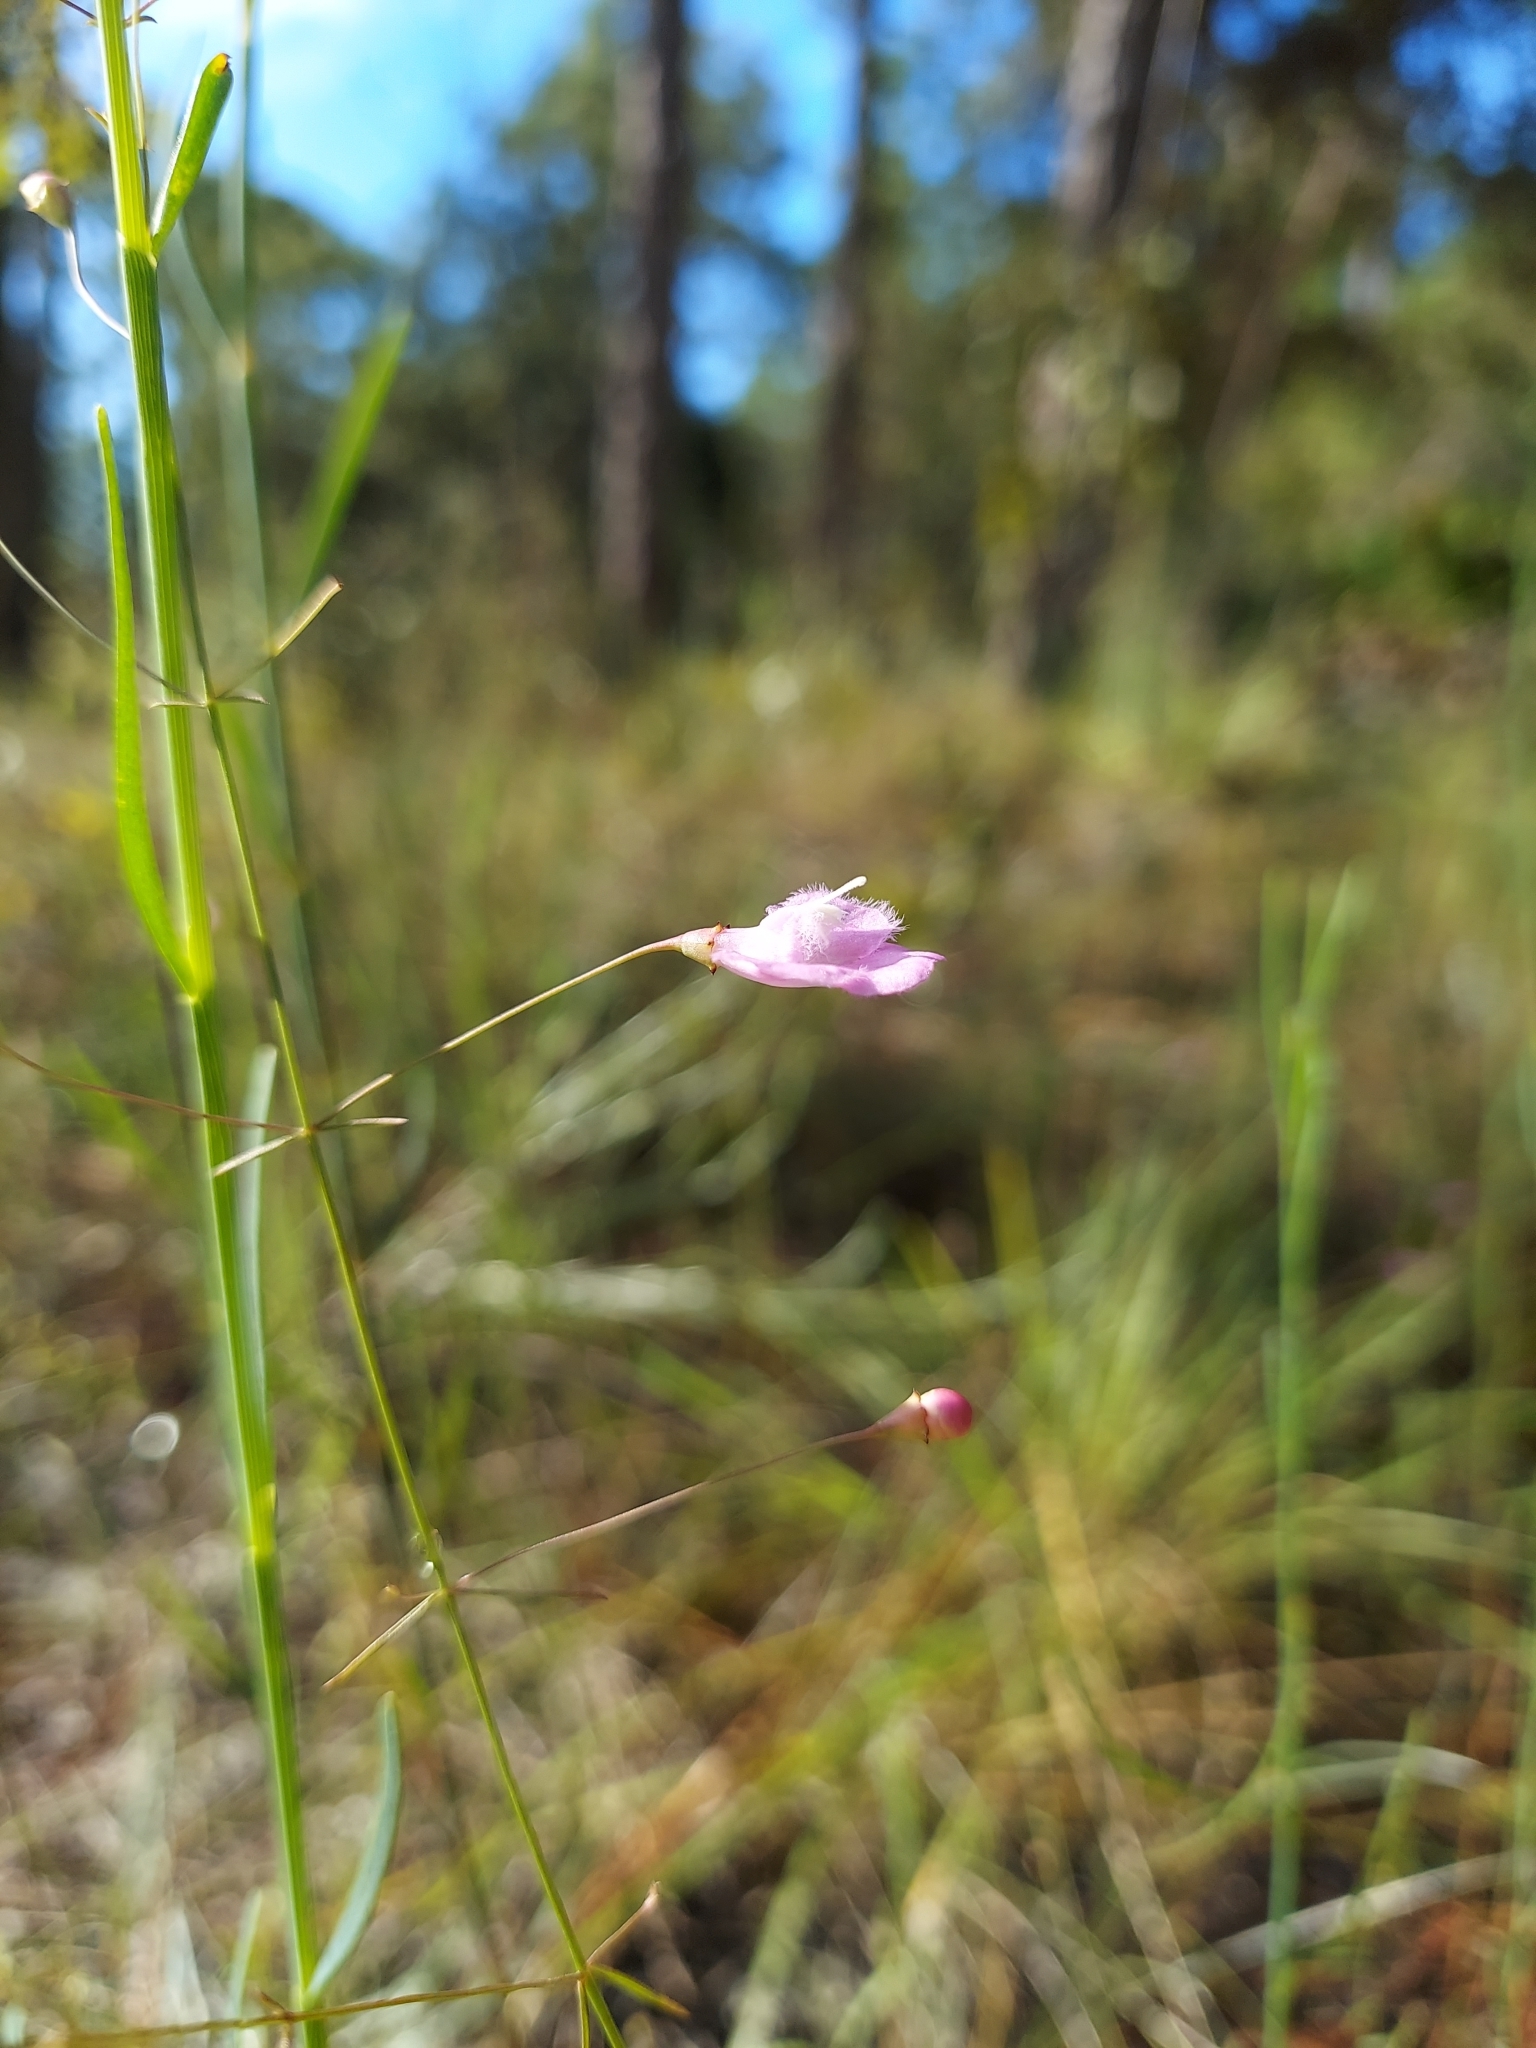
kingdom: Plantae
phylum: Tracheophyta
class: Magnoliopsida
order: Lamiales
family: Orobanchaceae
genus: Agalinis
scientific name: Agalinis divaricata
